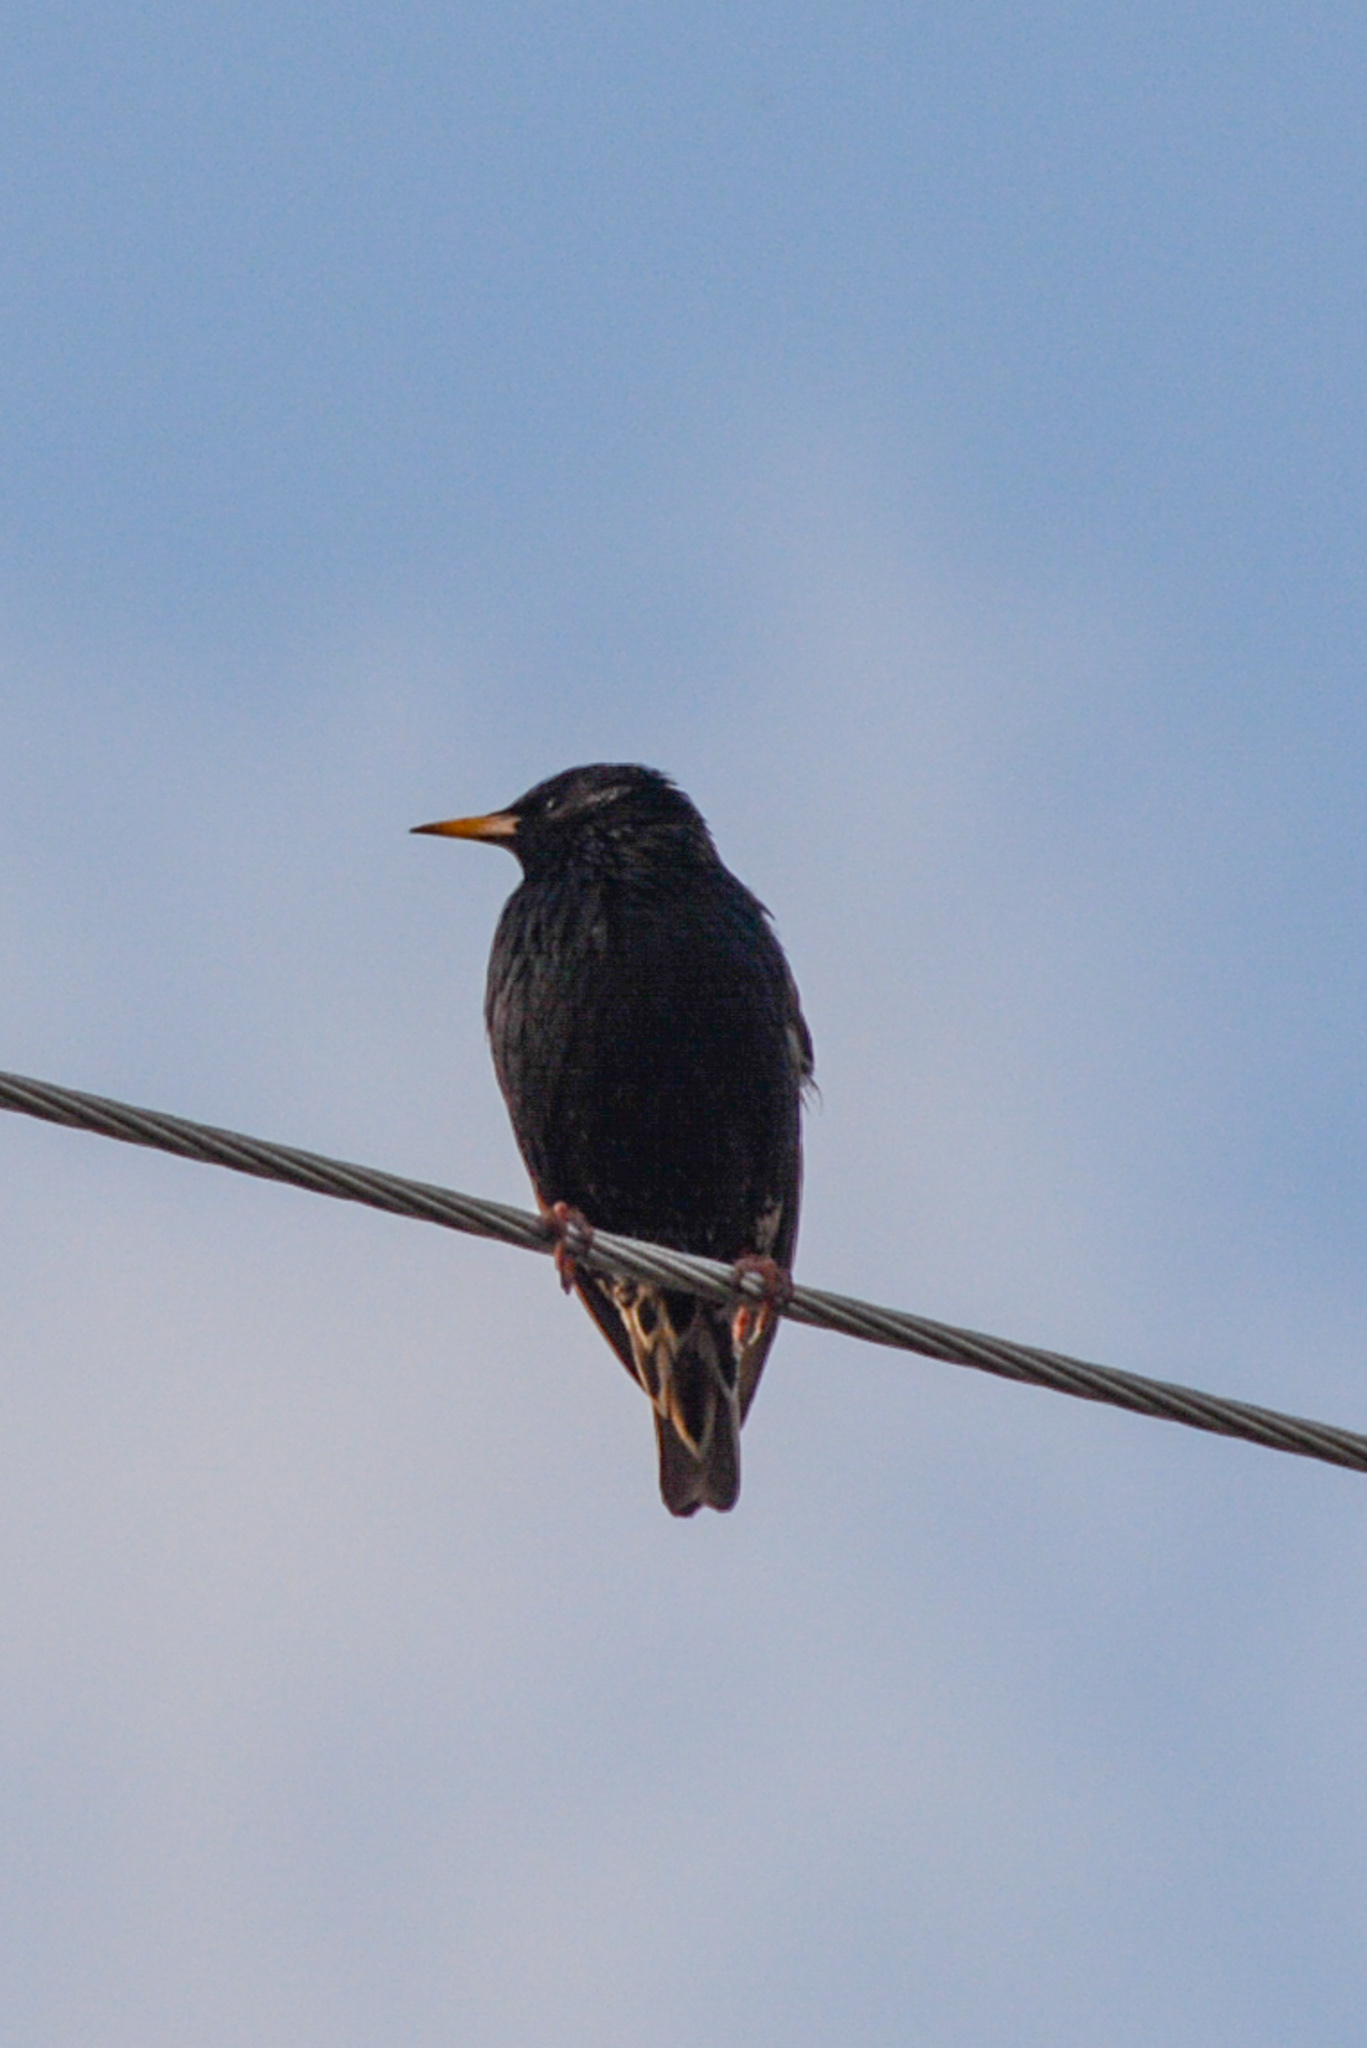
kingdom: Animalia
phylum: Chordata
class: Aves
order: Passeriformes
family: Sturnidae
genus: Sturnus
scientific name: Sturnus vulgaris
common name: Common starling
